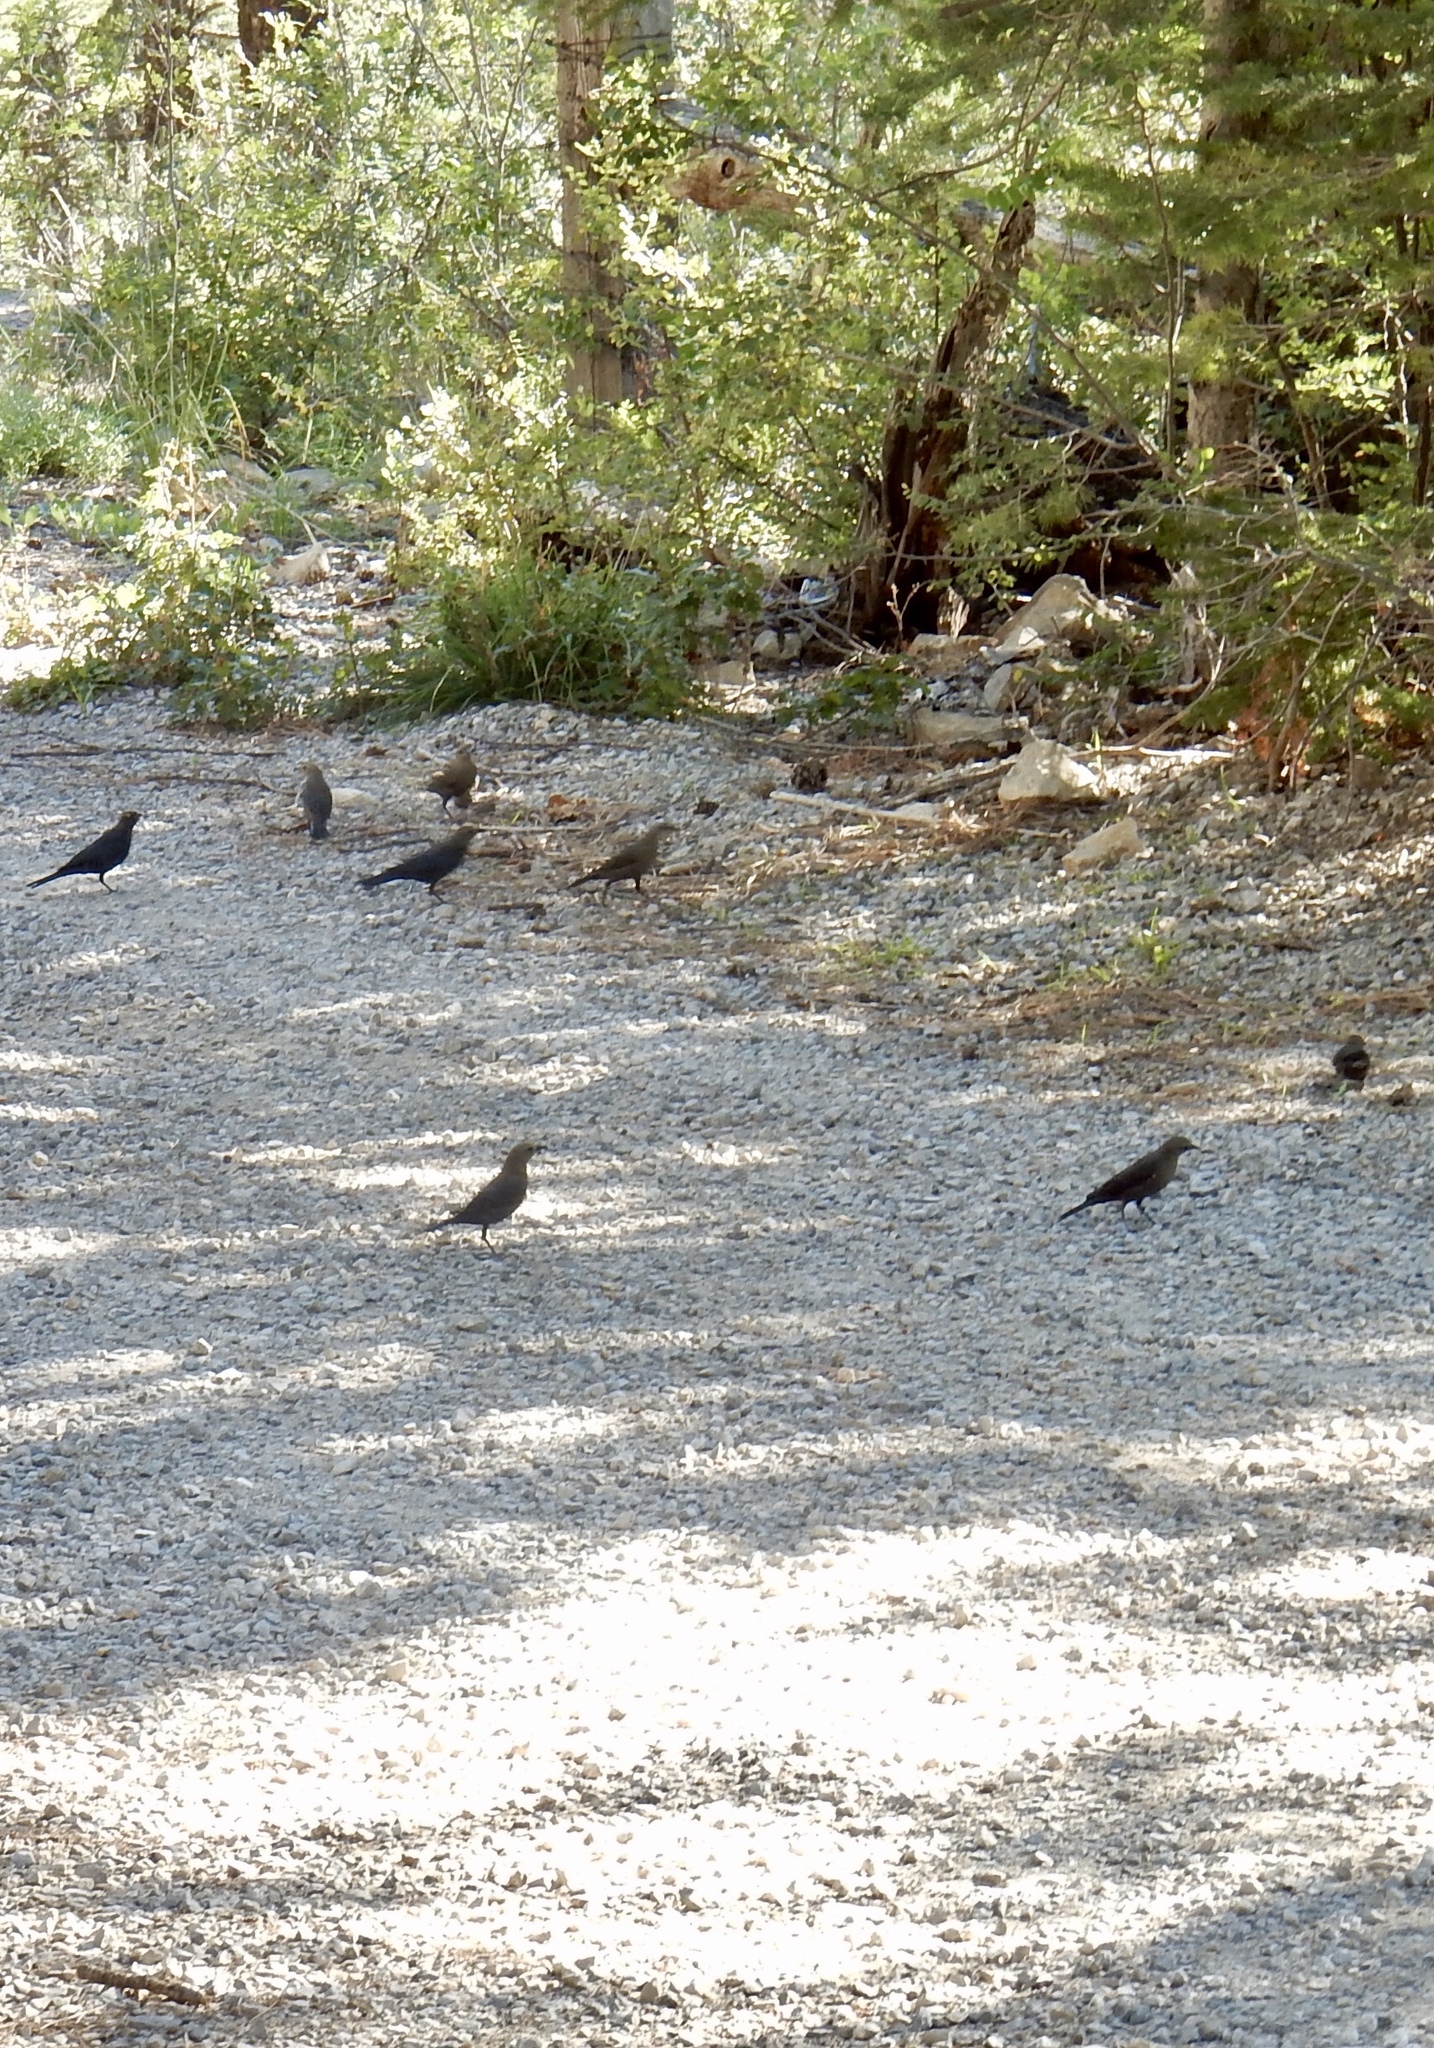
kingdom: Animalia
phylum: Chordata
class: Aves
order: Passeriformes
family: Icteridae
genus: Euphagus
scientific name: Euphagus cyanocephalus
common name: Brewer's blackbird
